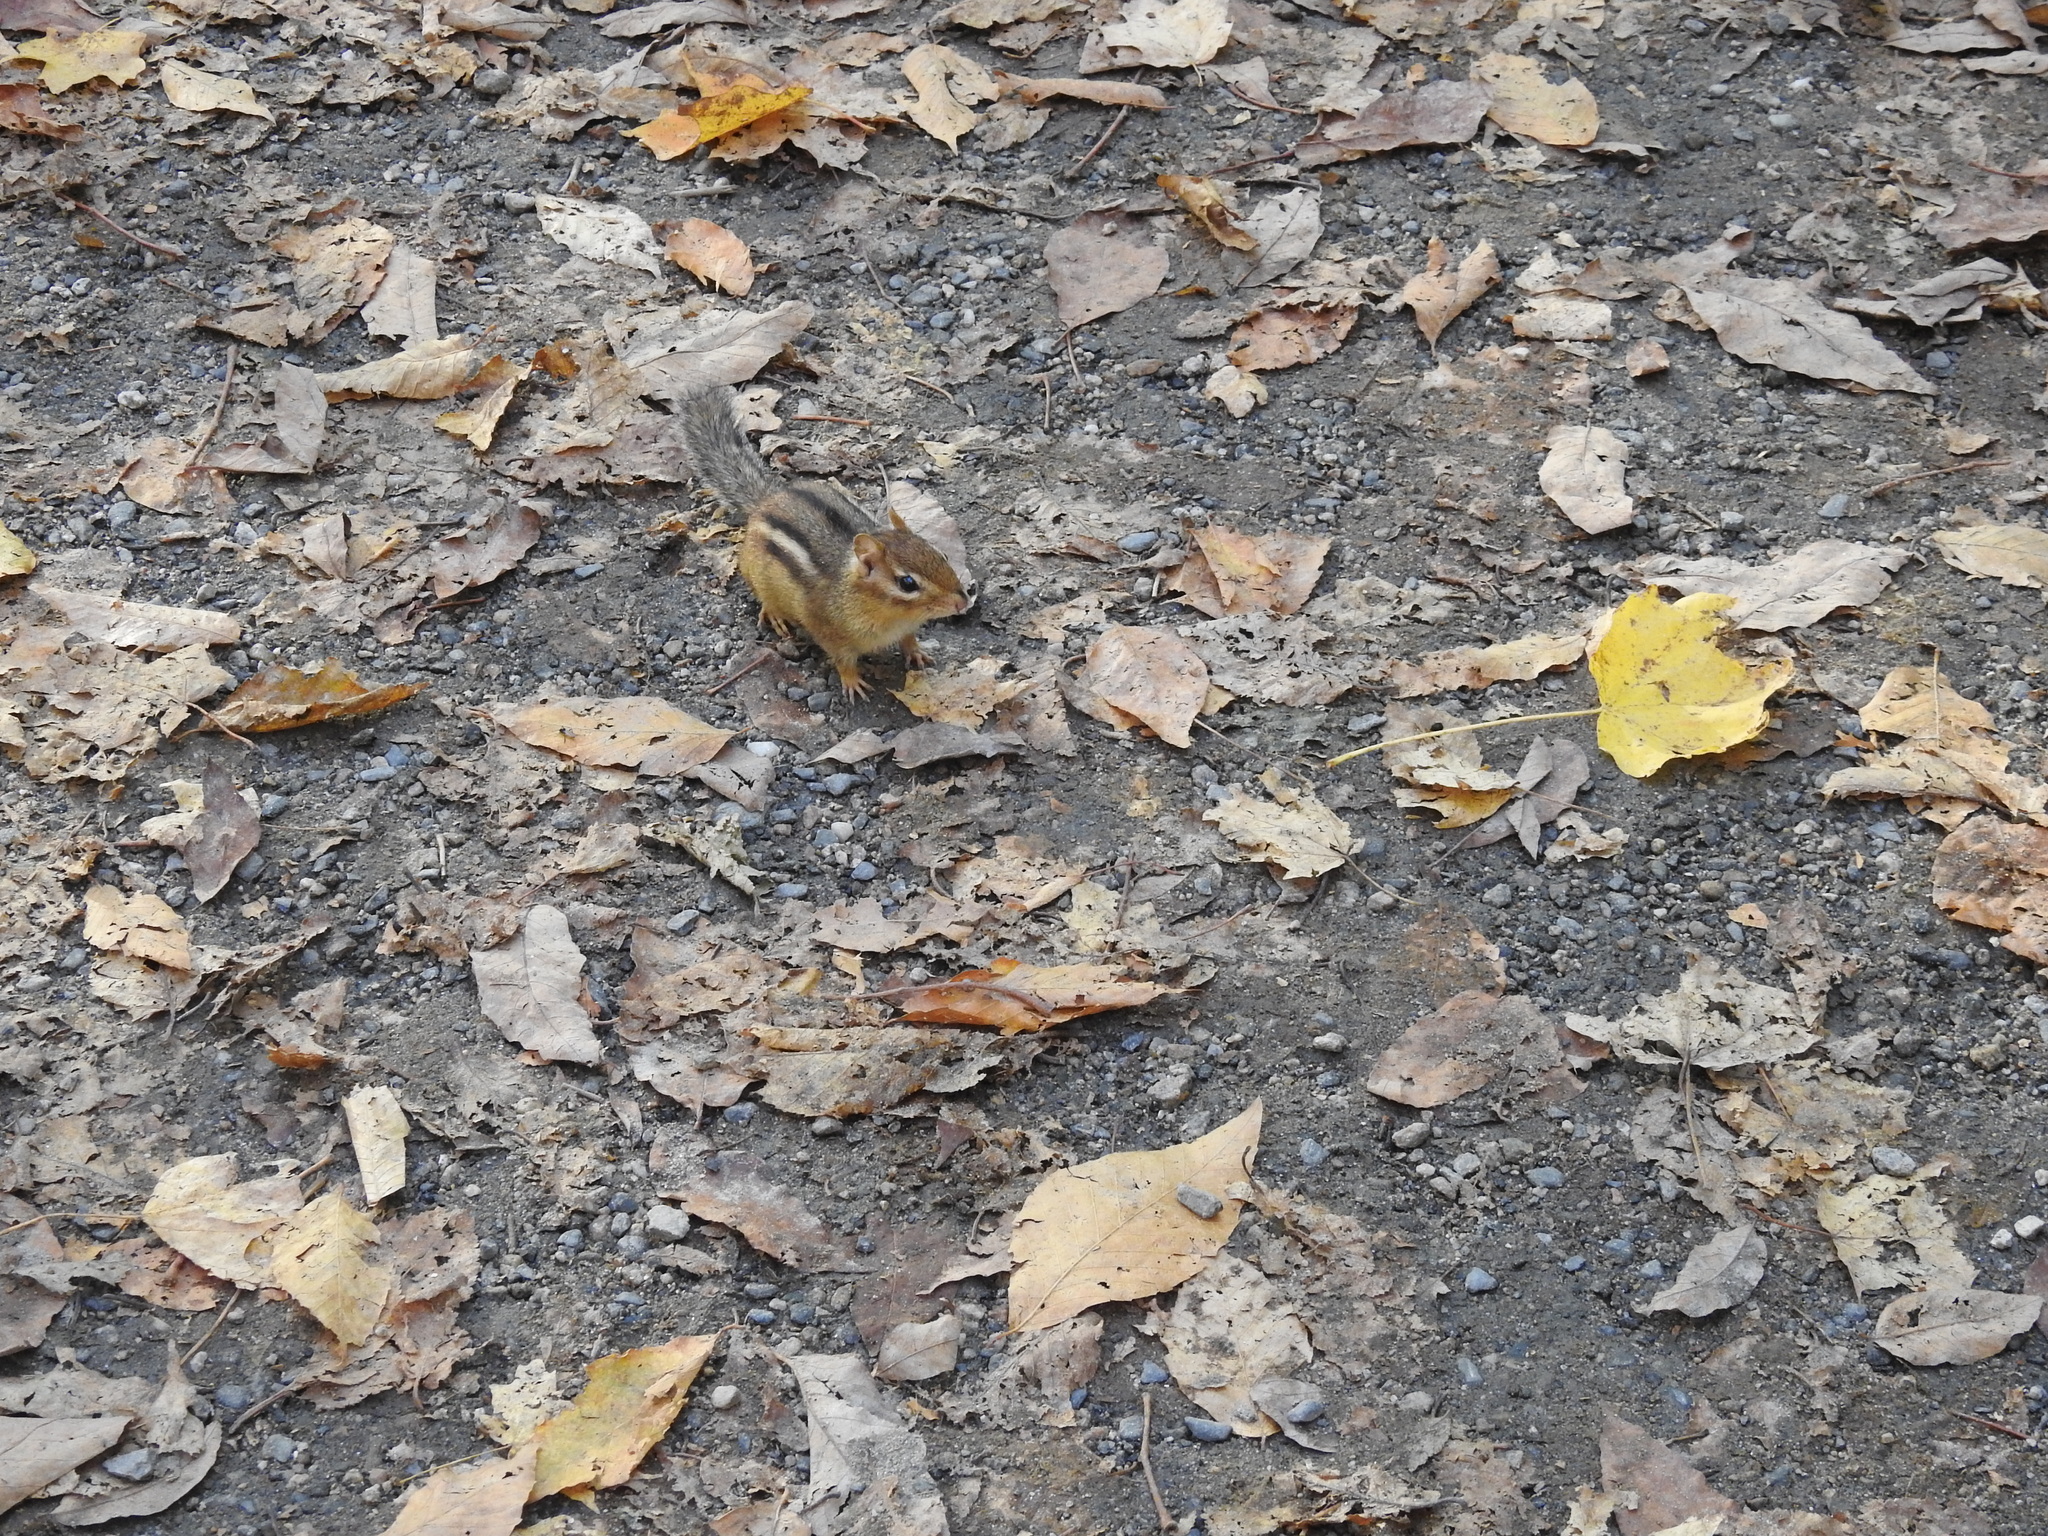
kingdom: Animalia
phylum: Chordata
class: Mammalia
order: Rodentia
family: Sciuridae
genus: Tamias
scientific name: Tamias striatus
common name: Eastern chipmunk
